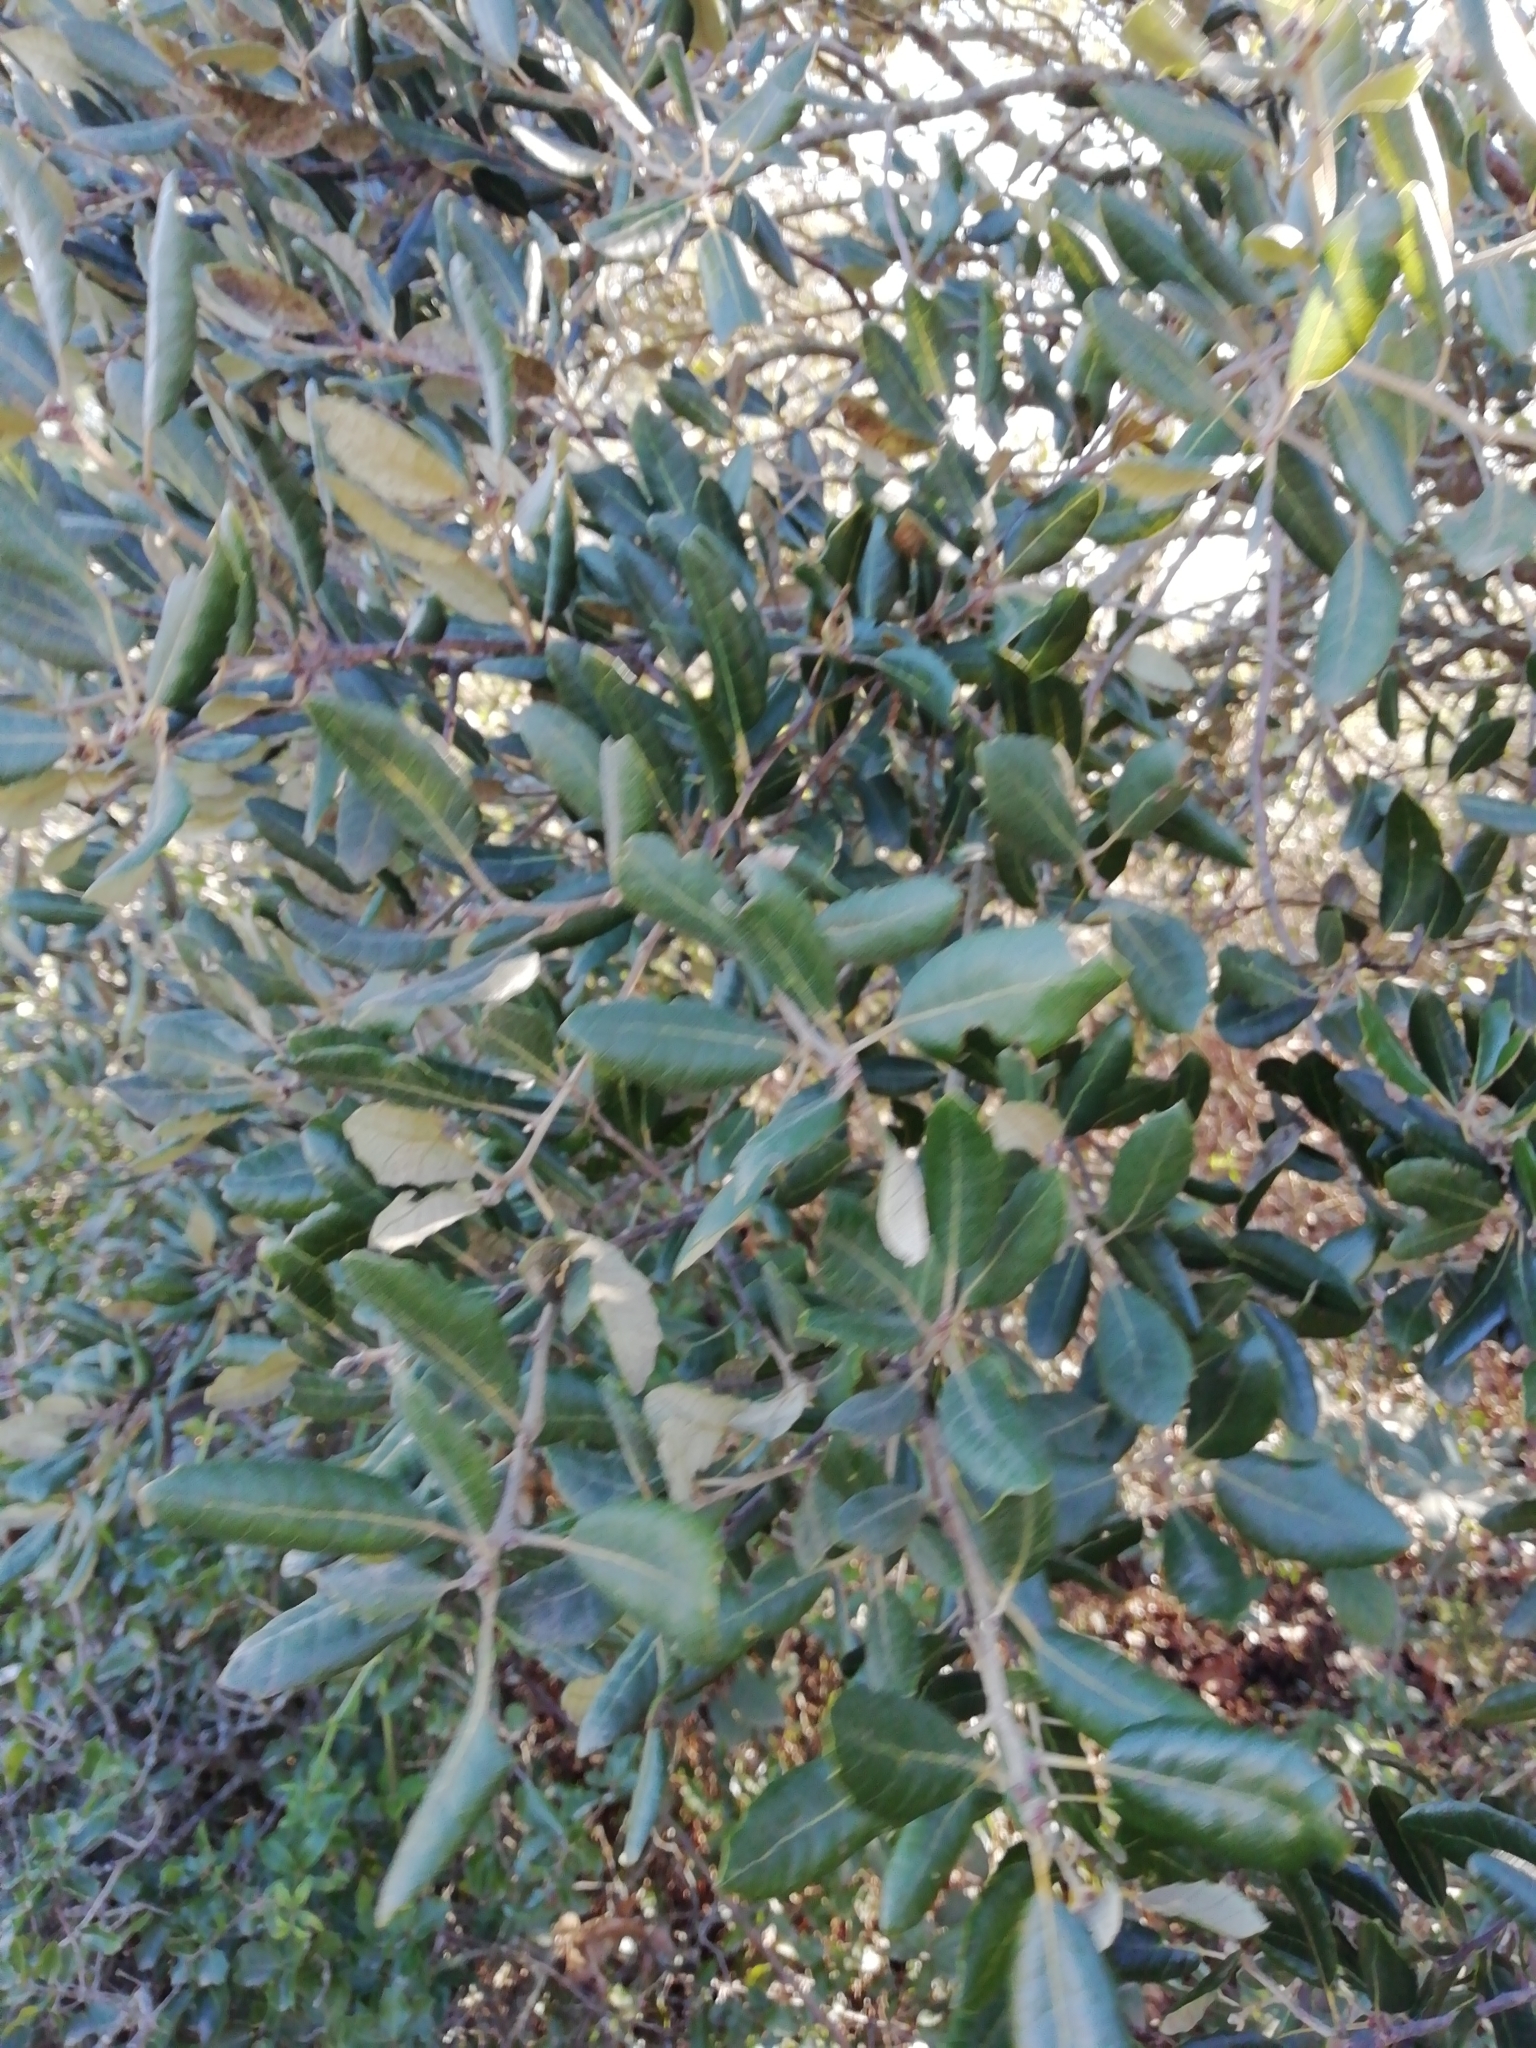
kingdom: Plantae
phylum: Tracheophyta
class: Magnoliopsida
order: Fagales
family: Fagaceae
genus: Quercus
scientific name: Quercus ilex
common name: Evergreen oak
